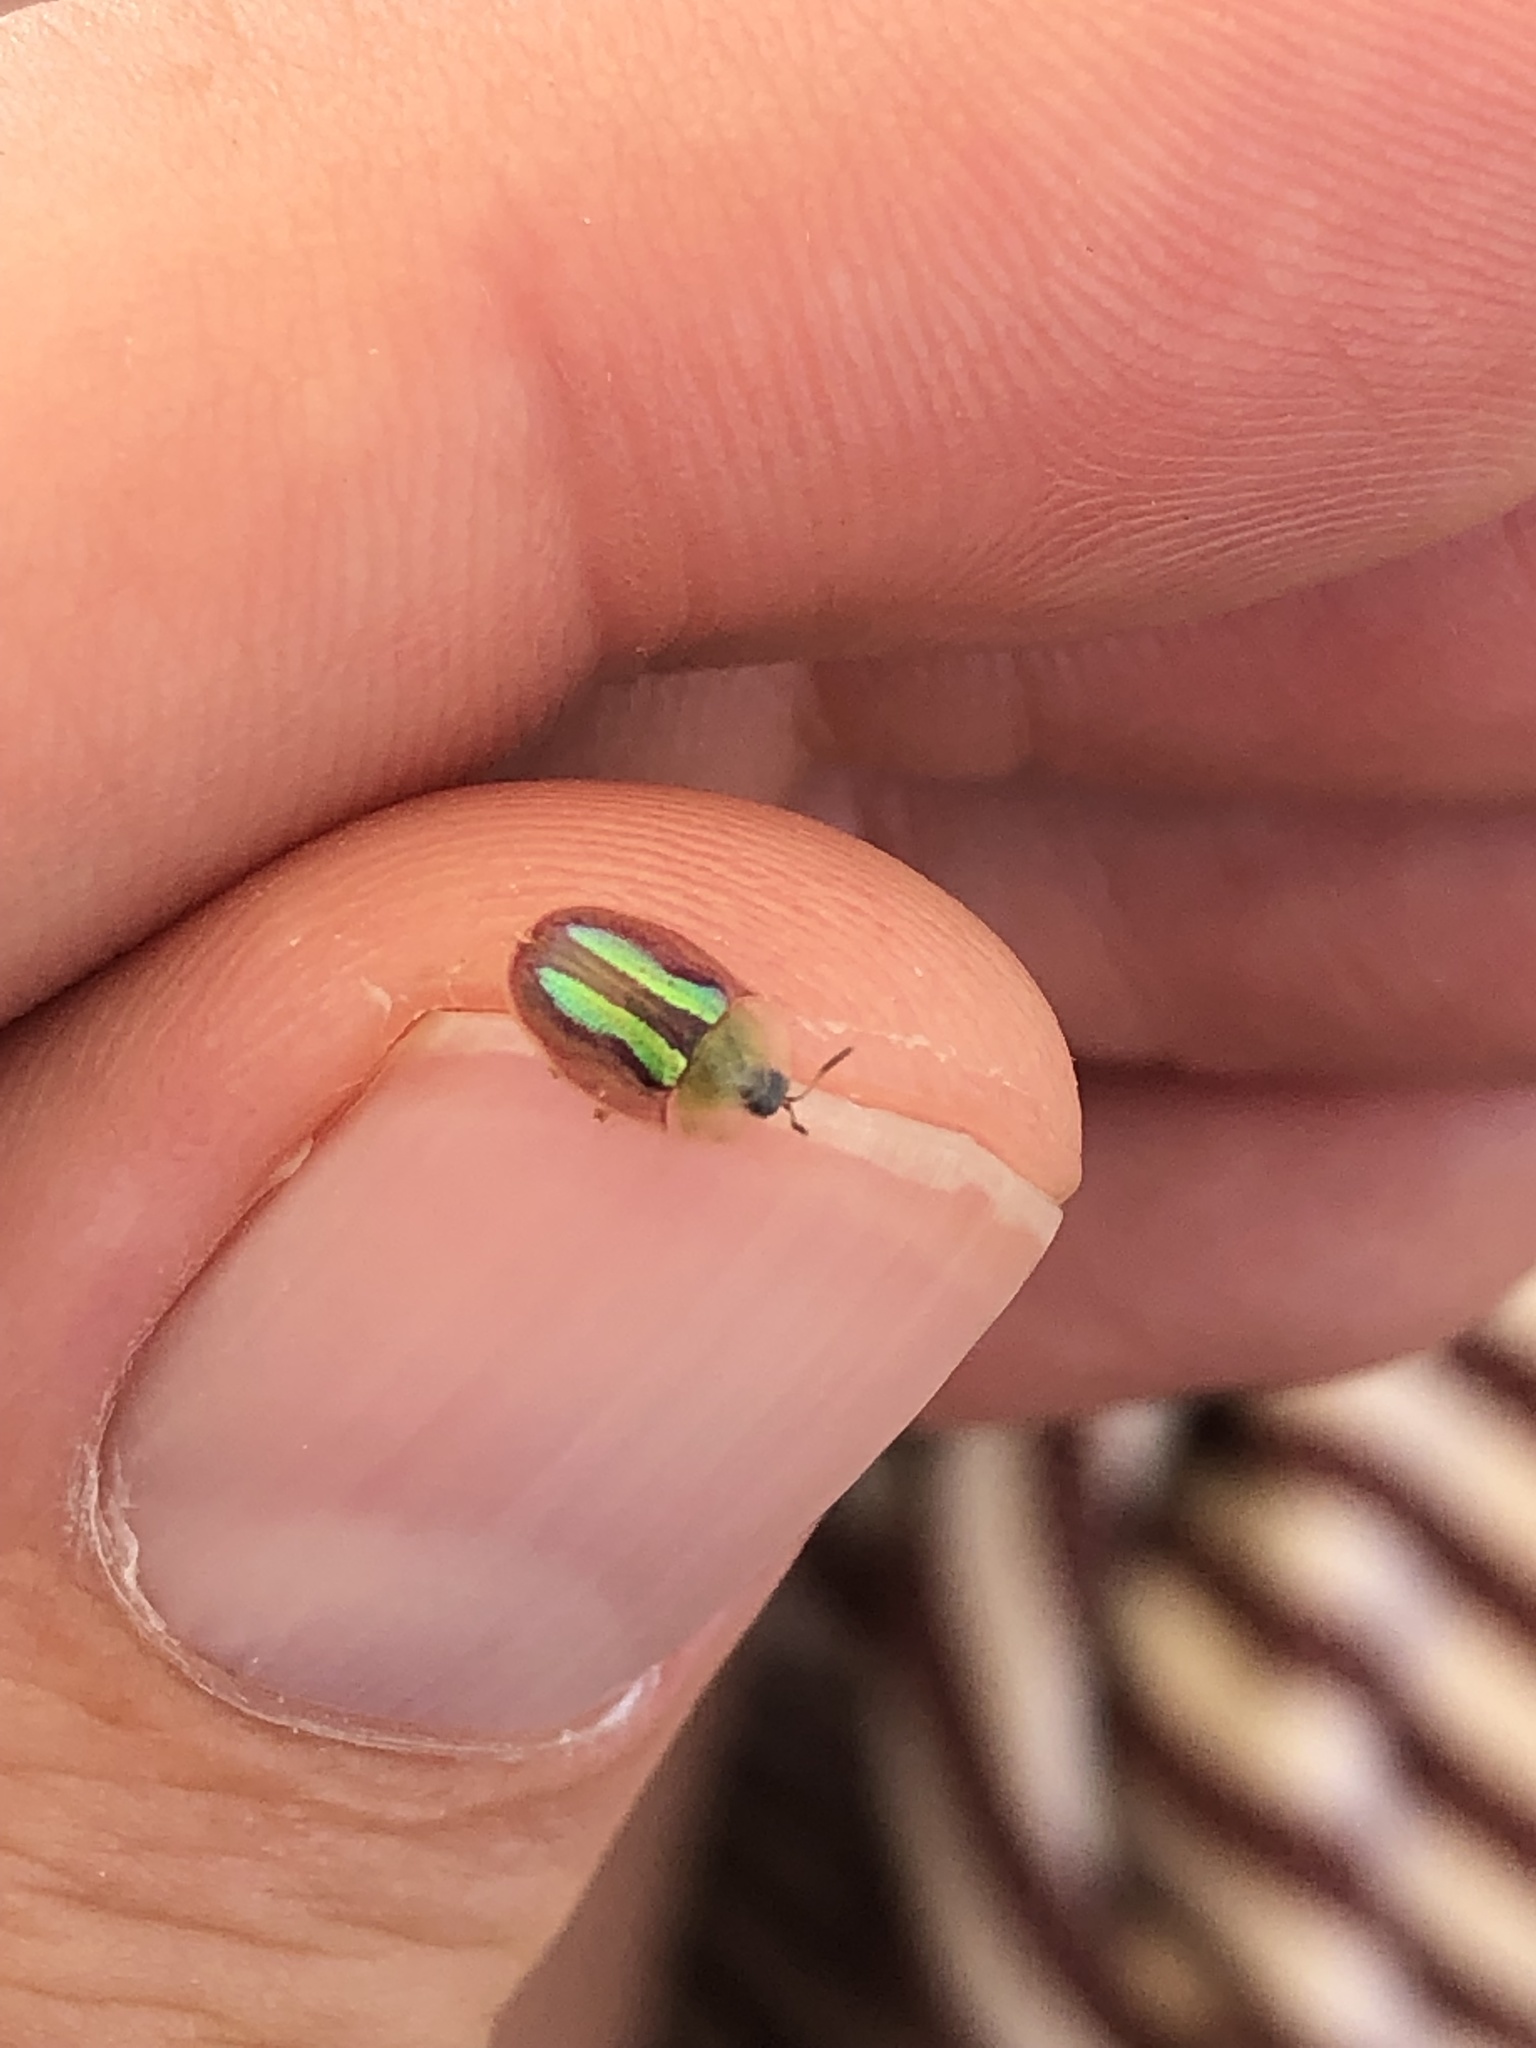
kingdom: Animalia
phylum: Arthropoda
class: Insecta
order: Coleoptera
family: Chrysomelidae
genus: Cassida
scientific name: Cassida vittata
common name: Bordered tortoise beetle
